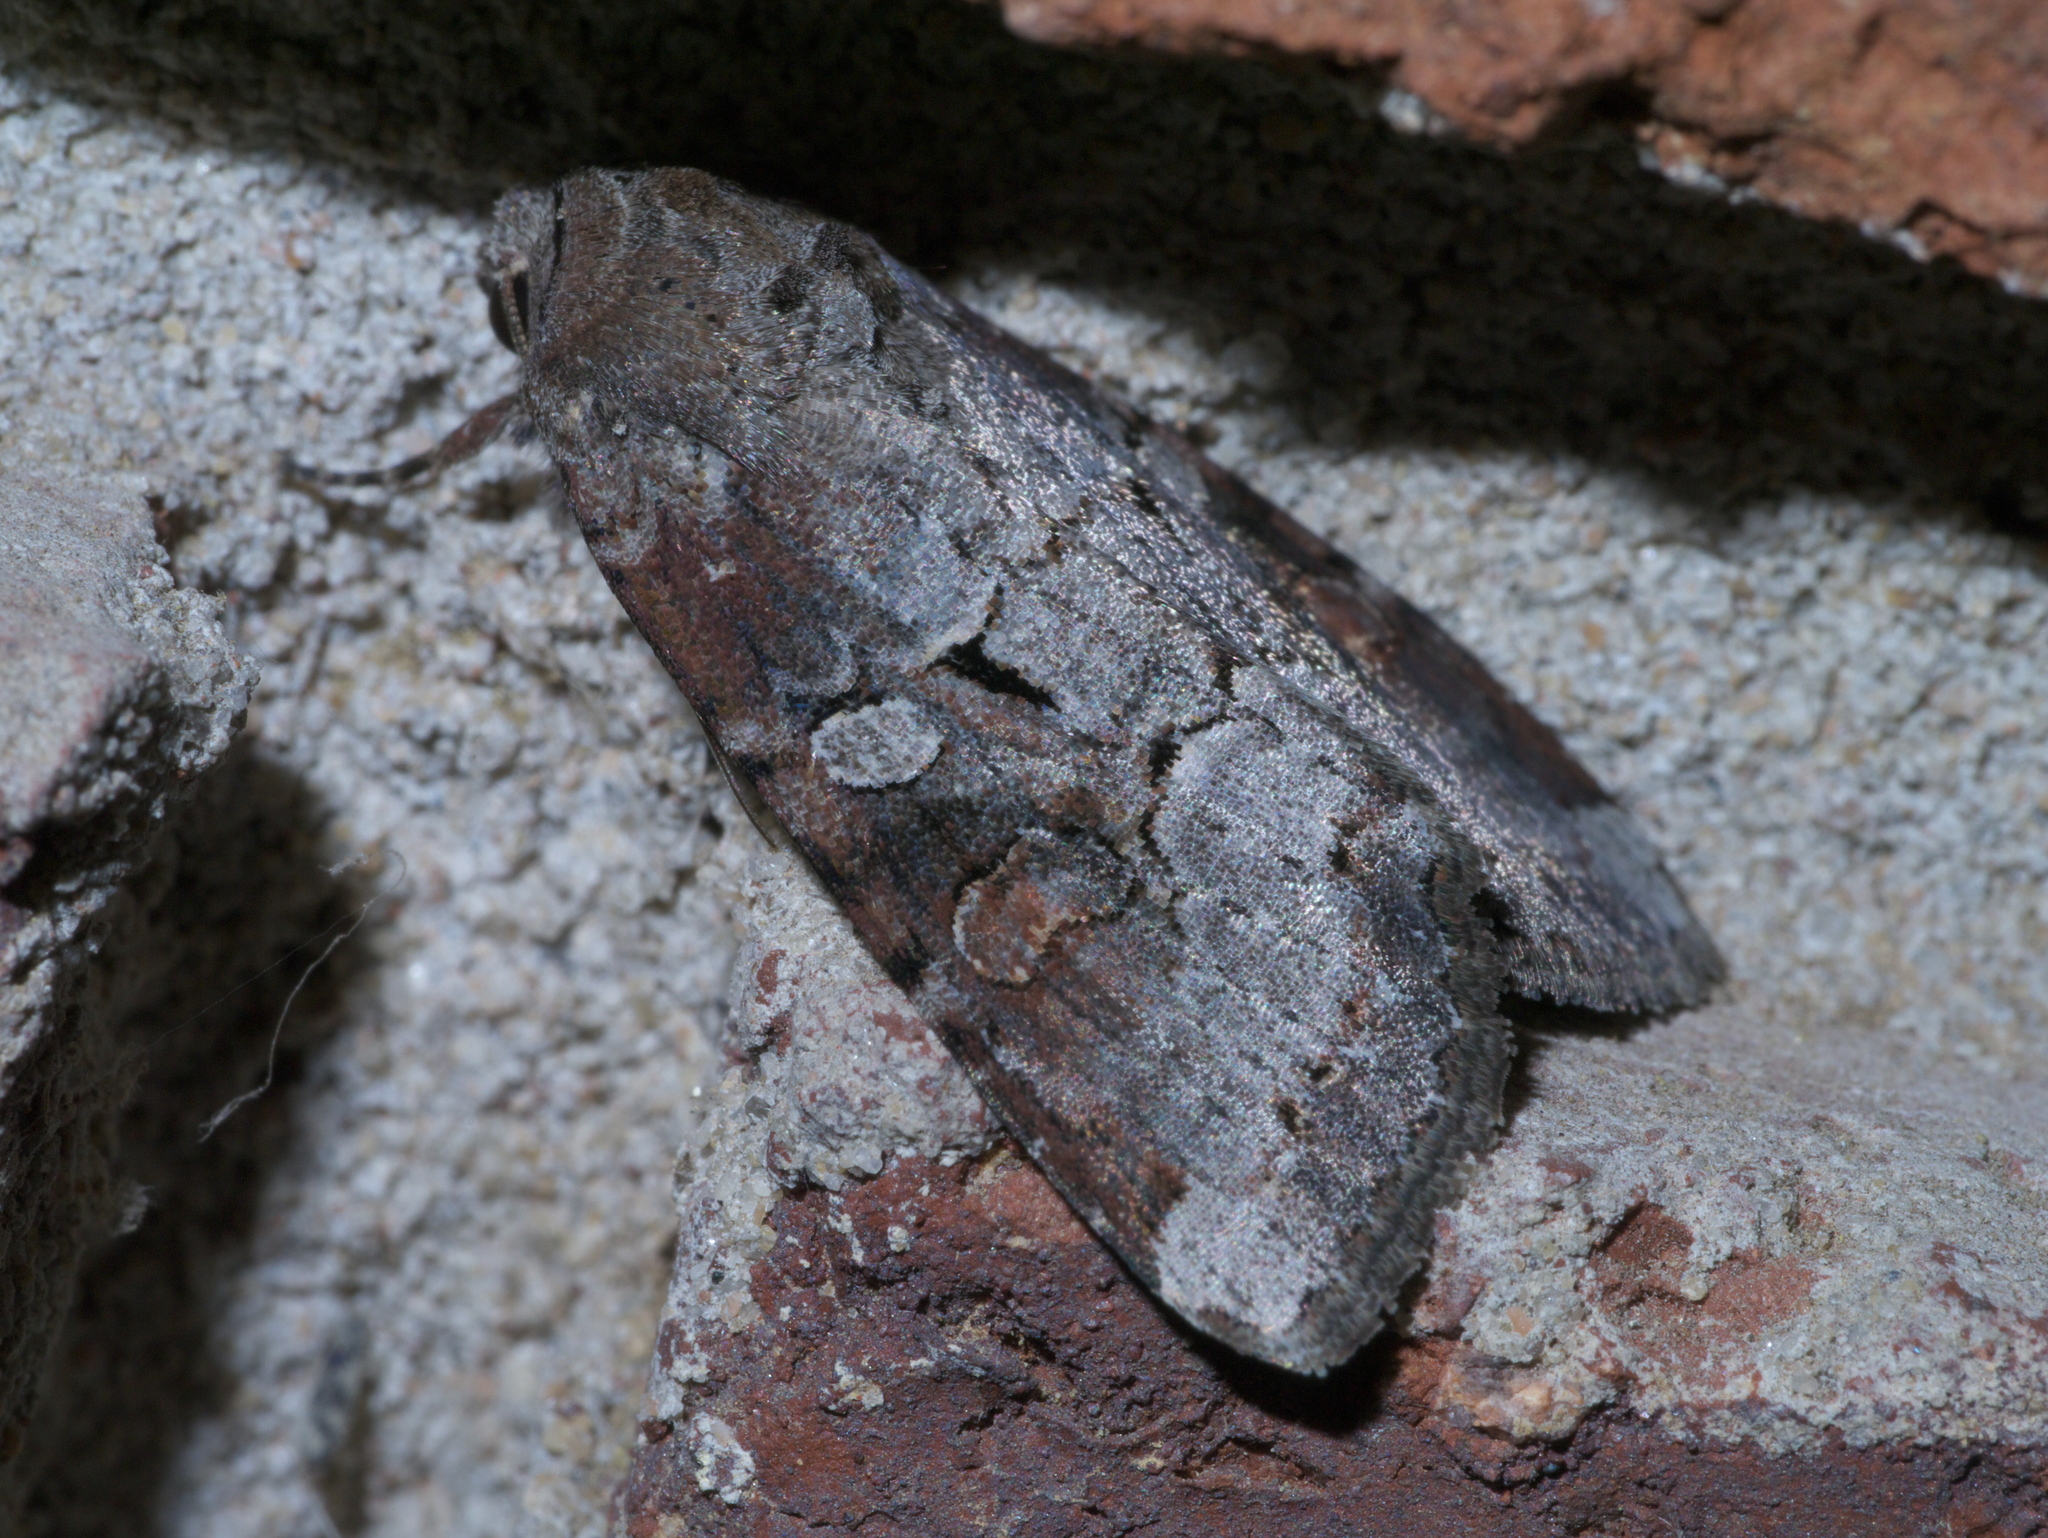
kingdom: Animalia
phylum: Arthropoda
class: Insecta
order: Lepidoptera
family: Noctuidae
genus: Trichordestra
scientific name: Trichordestra legitima
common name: Striped garden caterpillar
